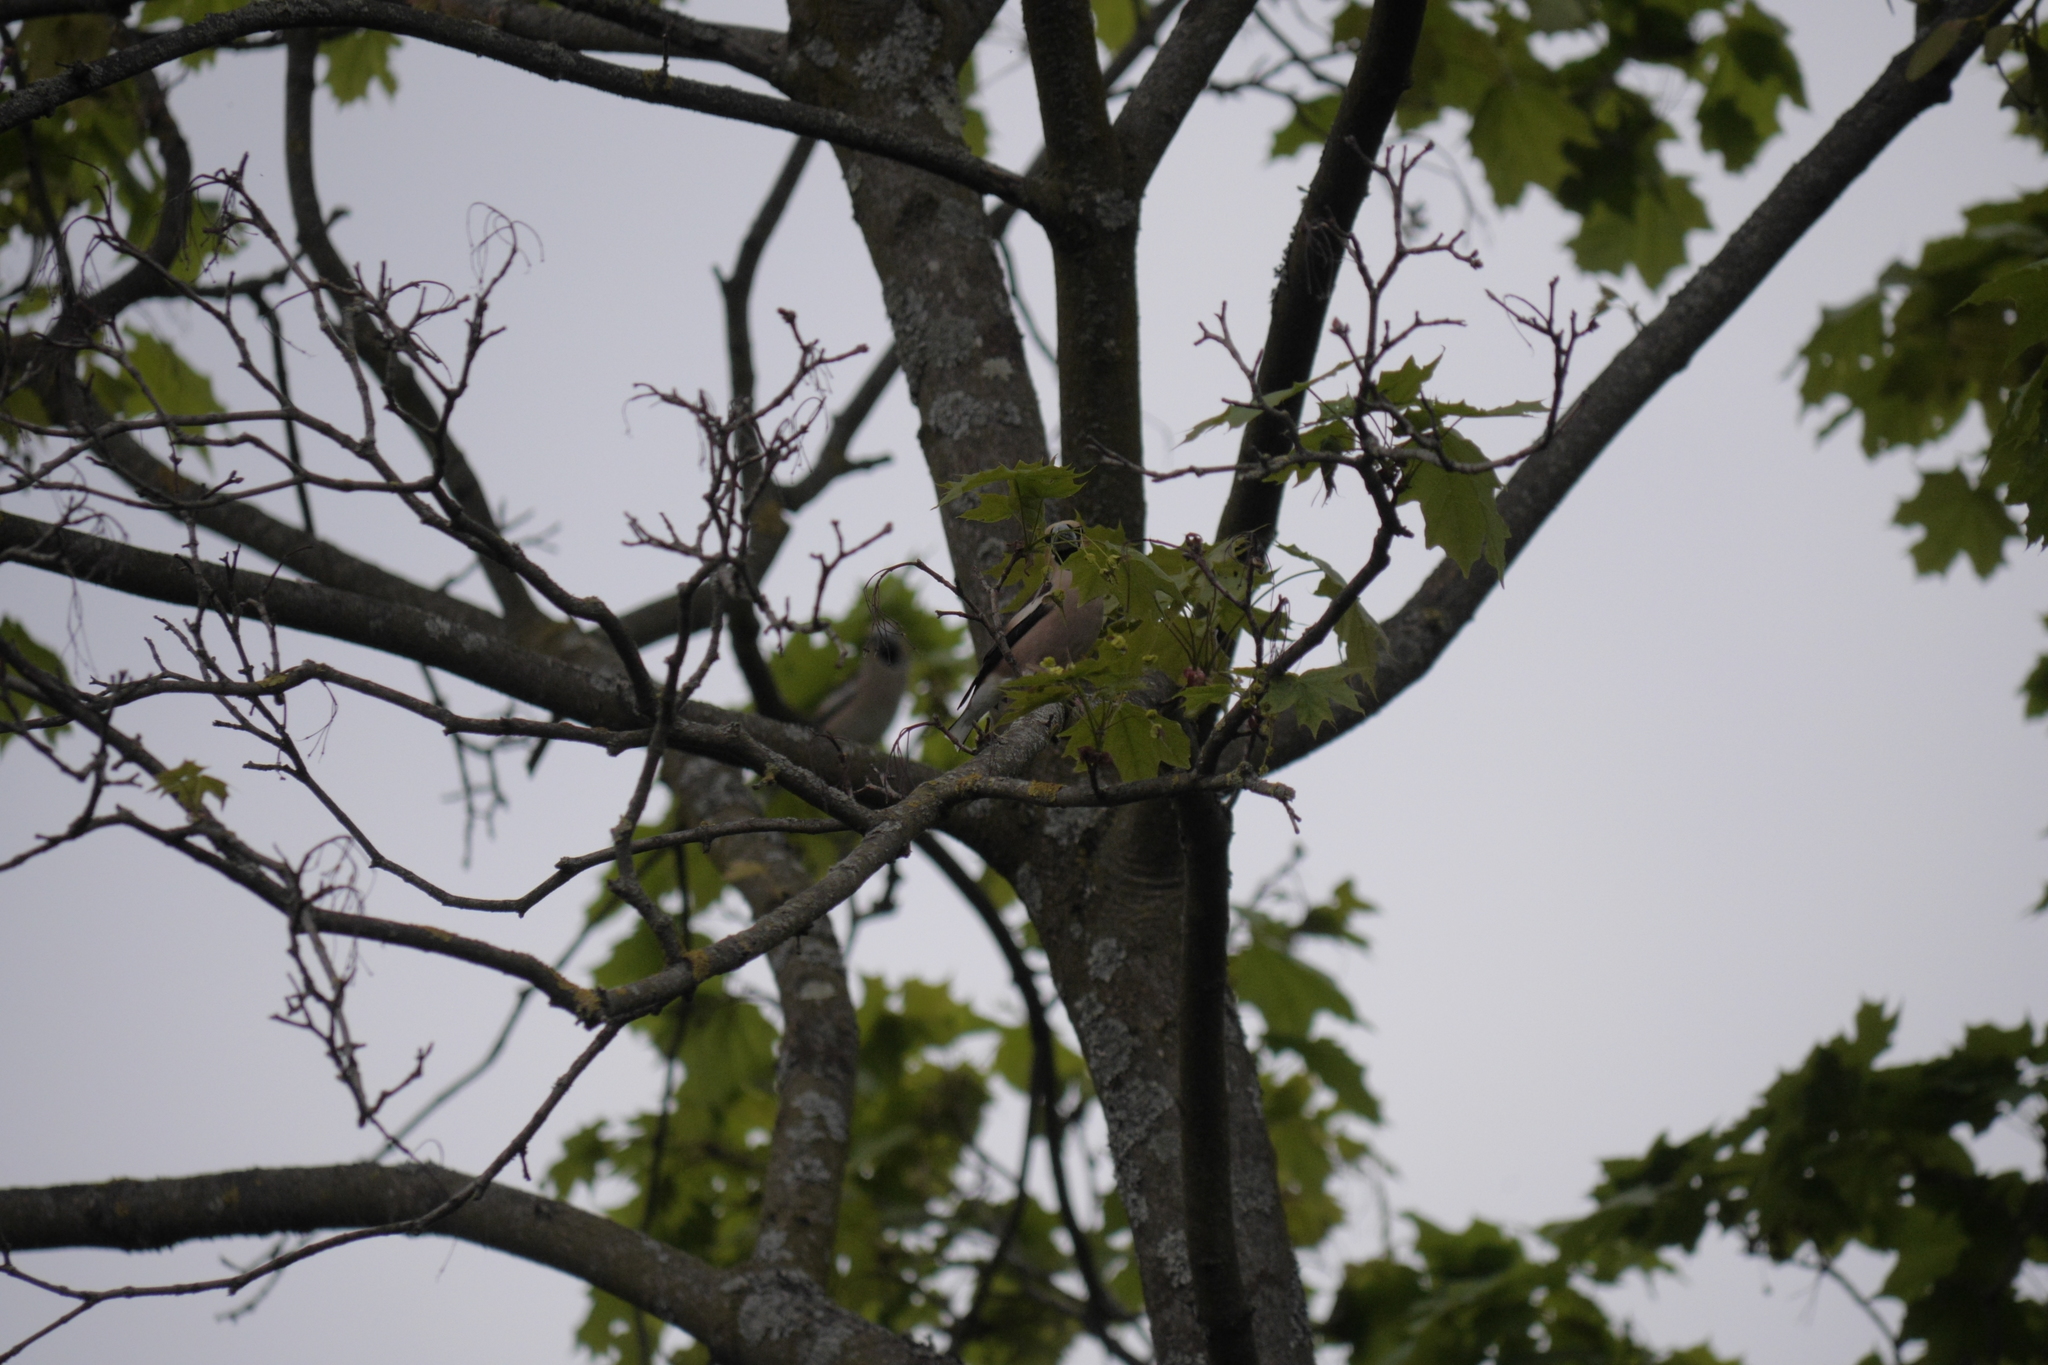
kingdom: Animalia
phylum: Chordata
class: Aves
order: Passeriformes
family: Fringillidae
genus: Coccothraustes
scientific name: Coccothraustes coccothraustes
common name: Hawfinch
